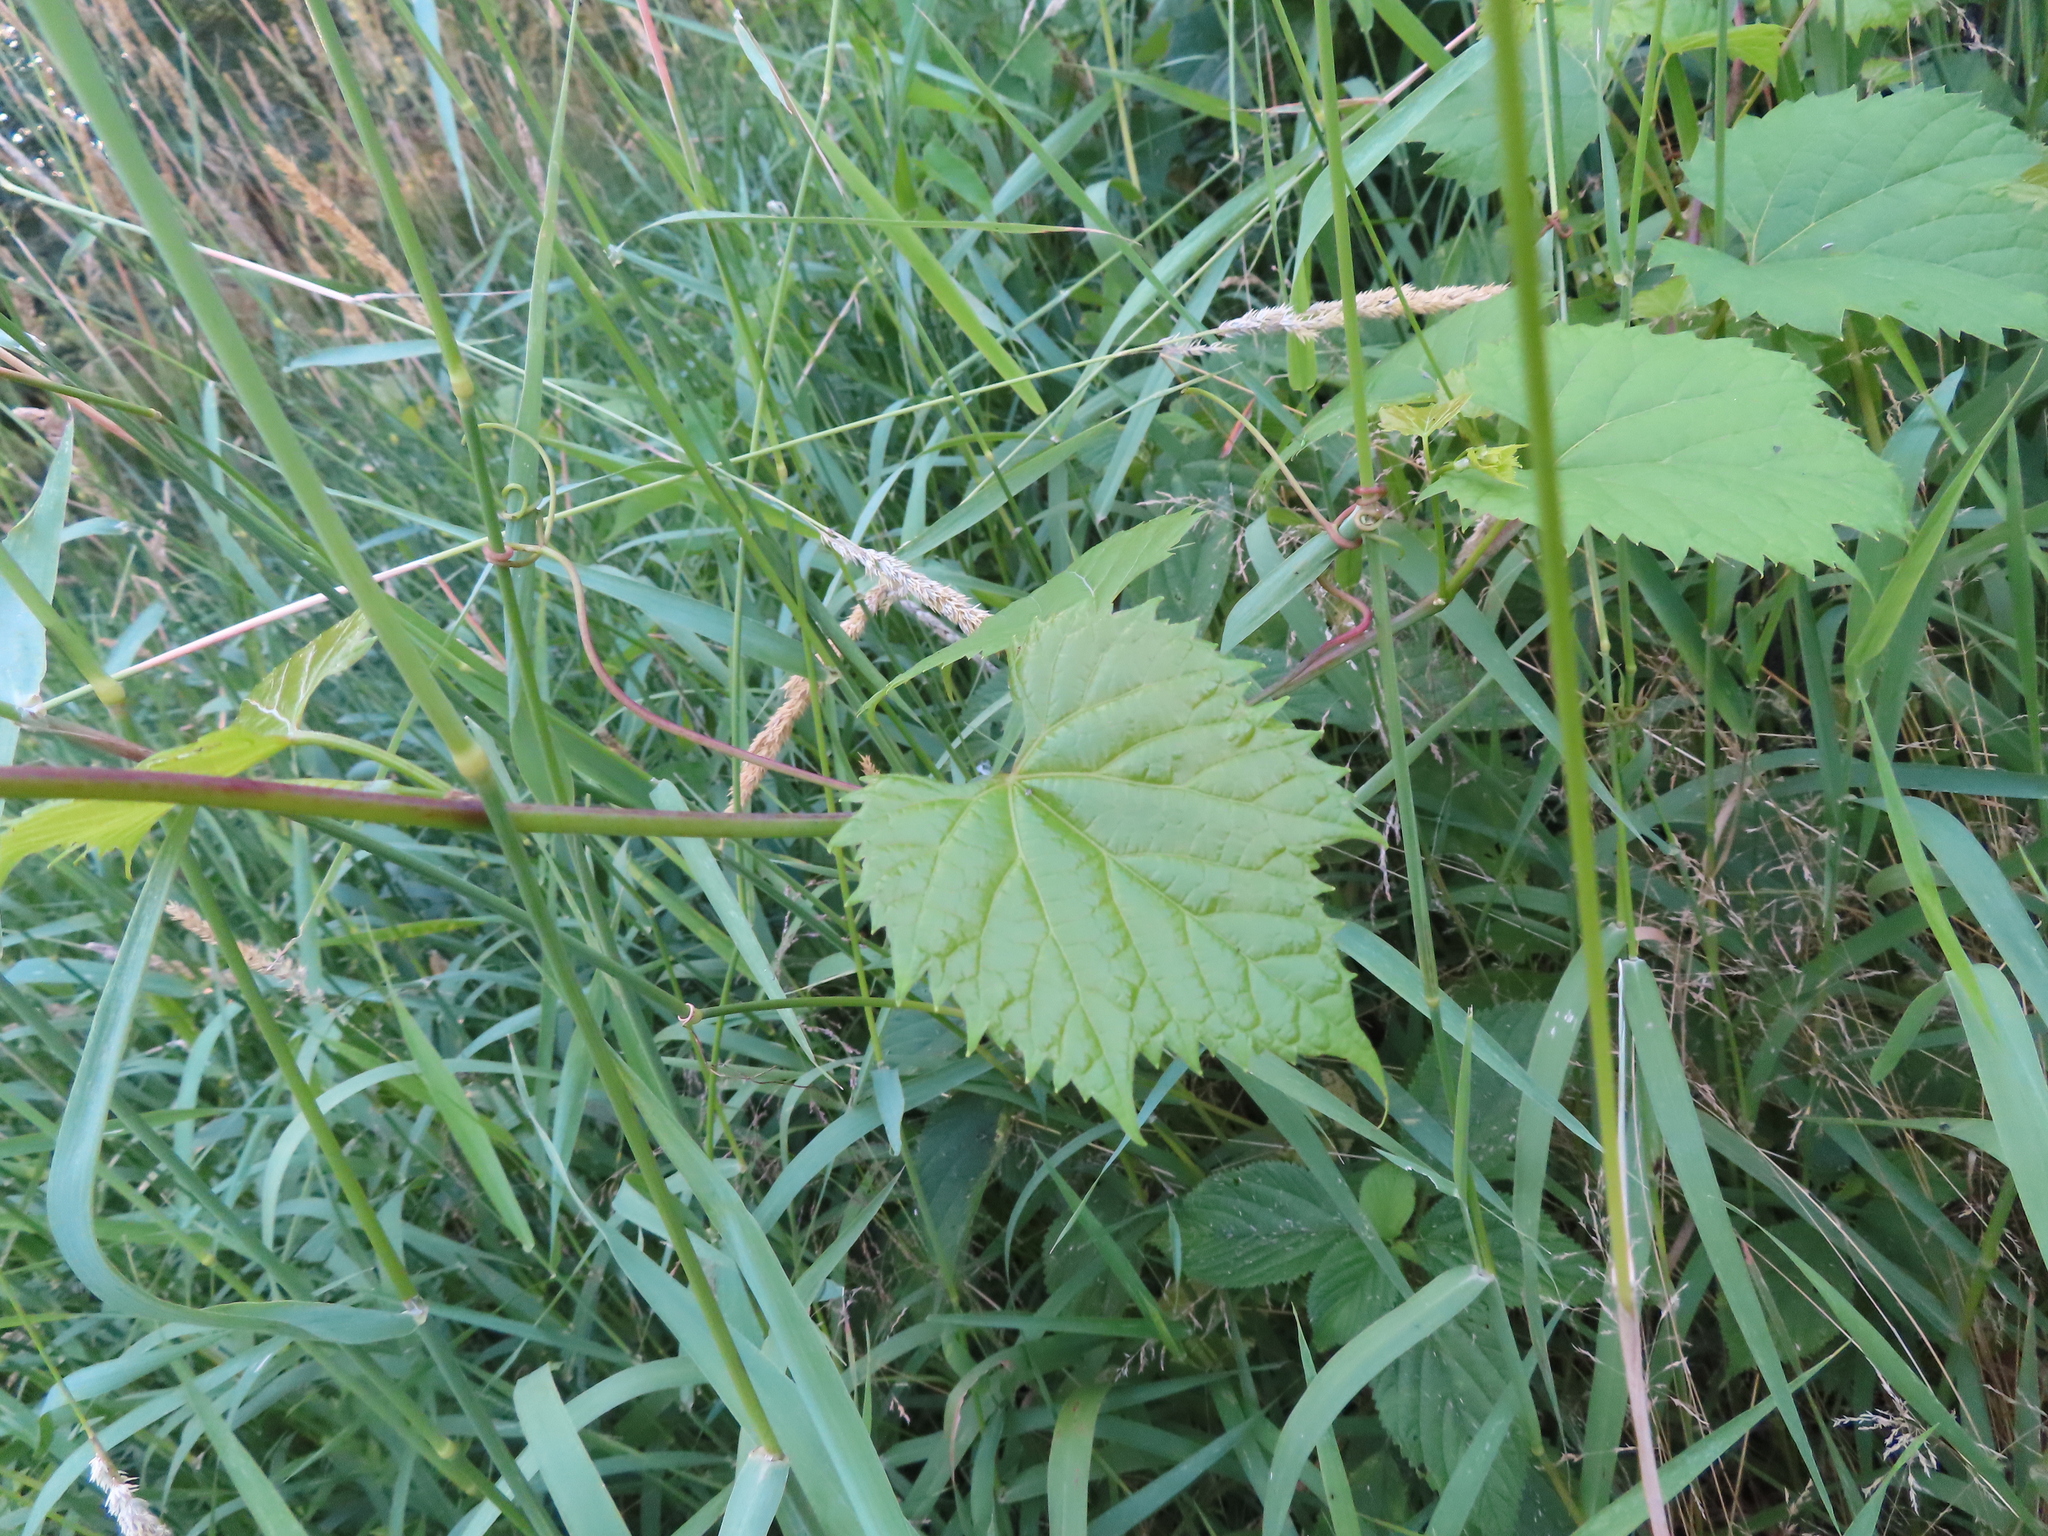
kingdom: Plantae
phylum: Tracheophyta
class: Magnoliopsida
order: Vitales
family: Vitaceae
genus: Vitis
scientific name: Vitis riparia
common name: Frost grape
